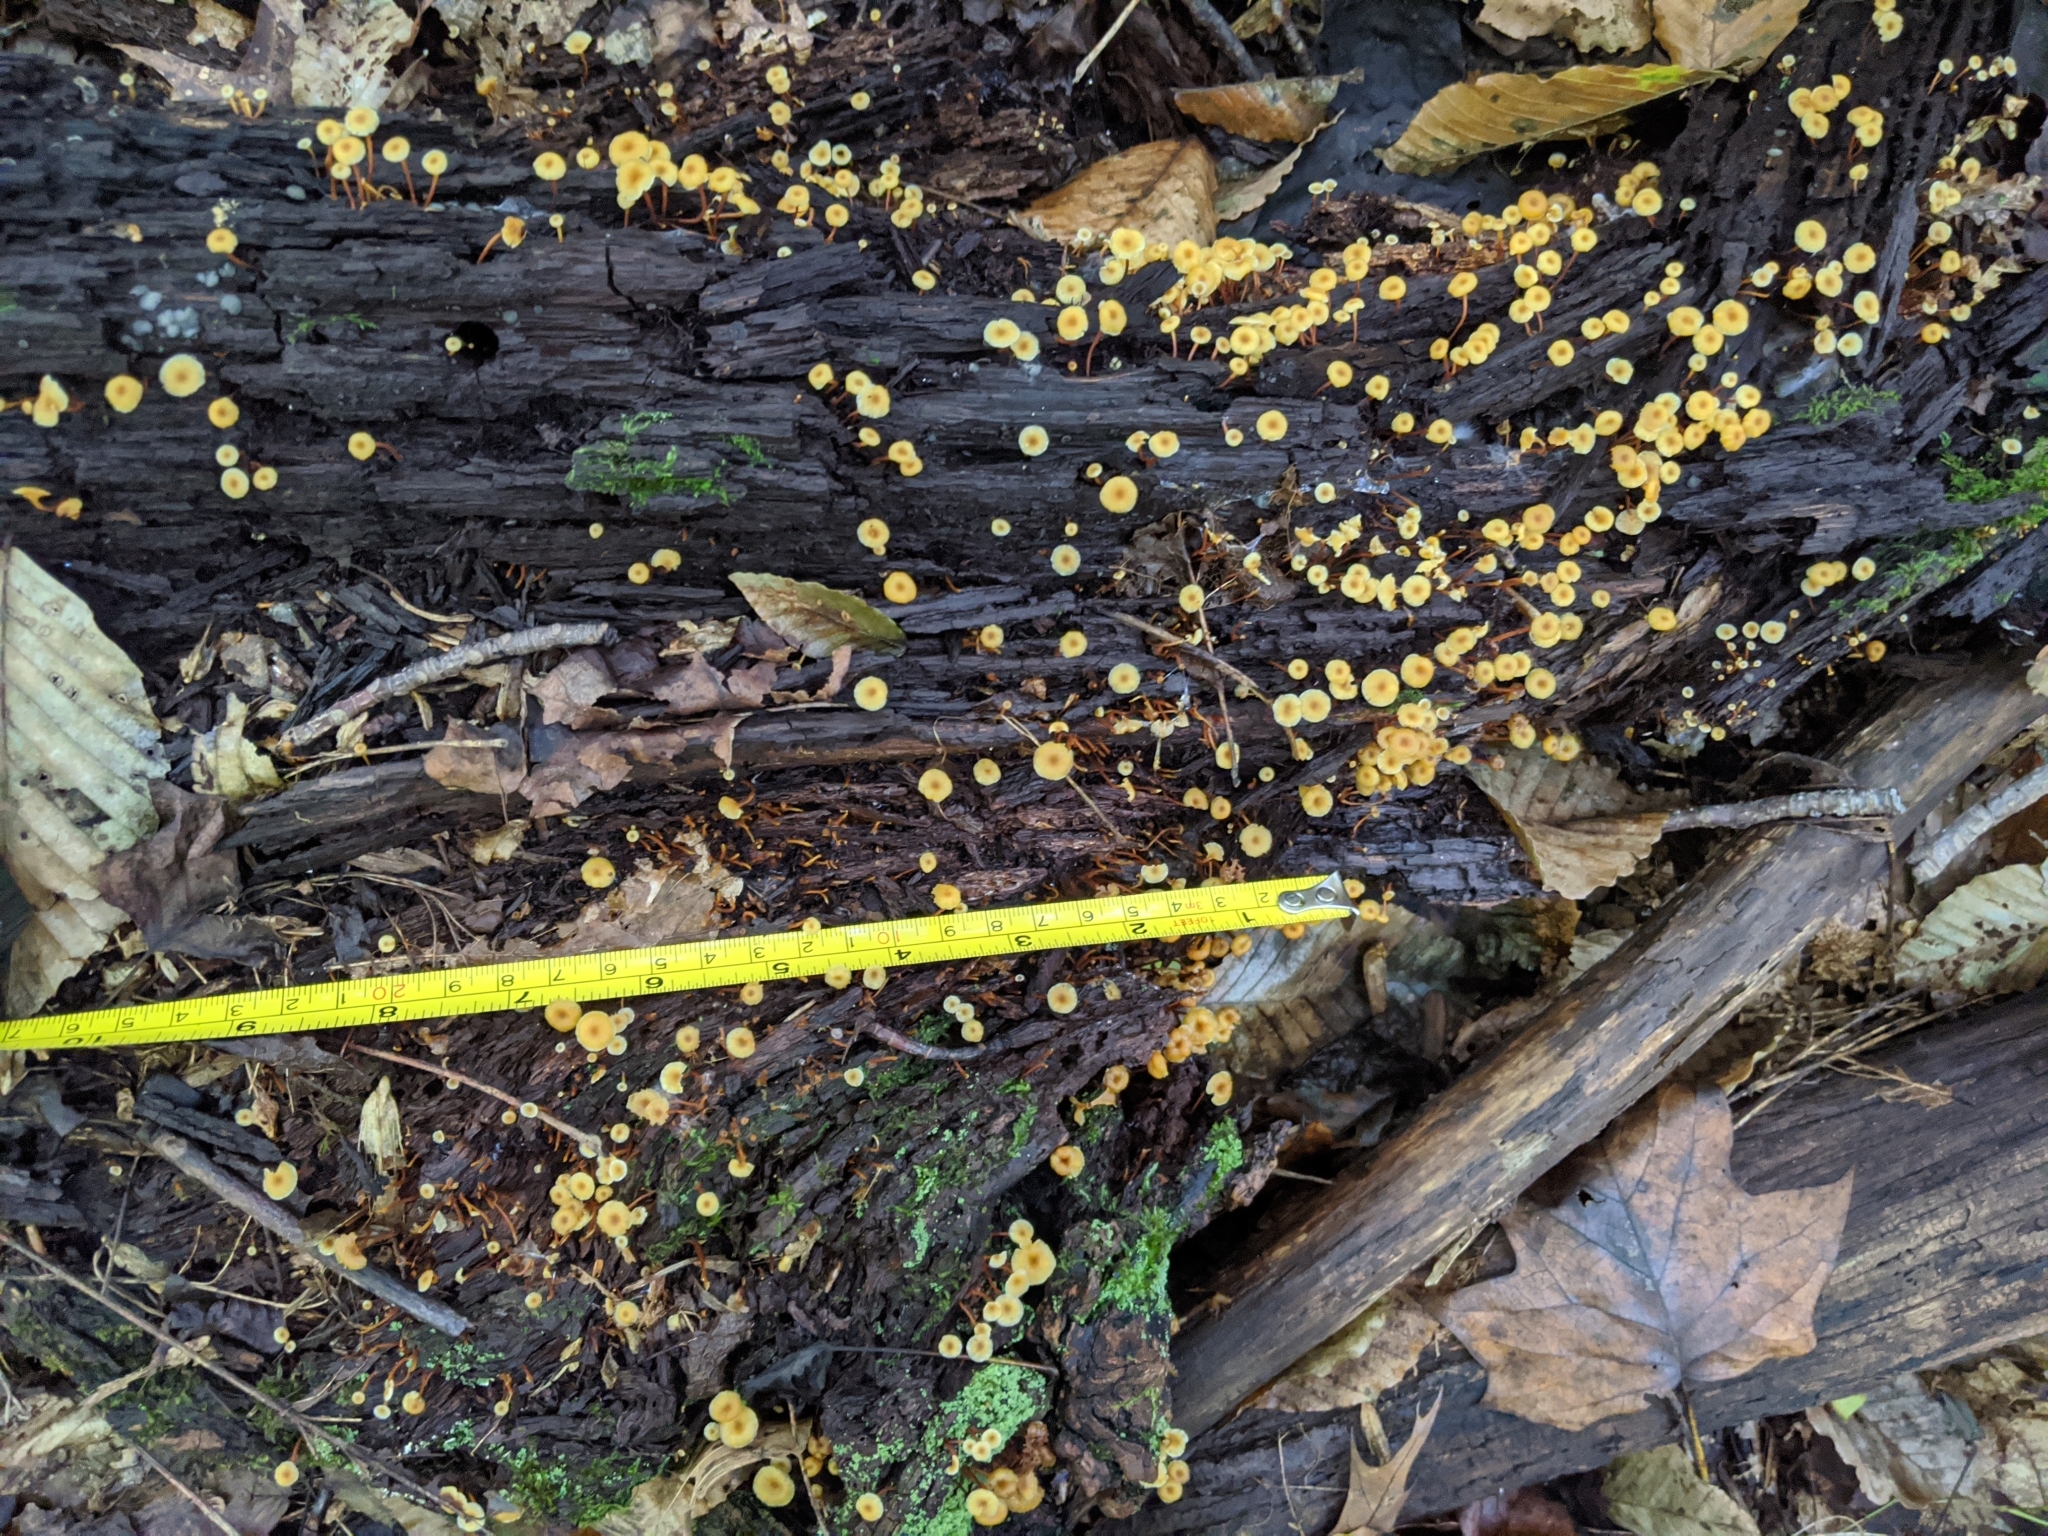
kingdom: Fungi
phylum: Basidiomycota
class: Agaricomycetes
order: Agaricales
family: Mycenaceae
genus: Xeromphalina
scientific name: Xeromphalina kauffmanii
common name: Cross-veined troop mushroom
